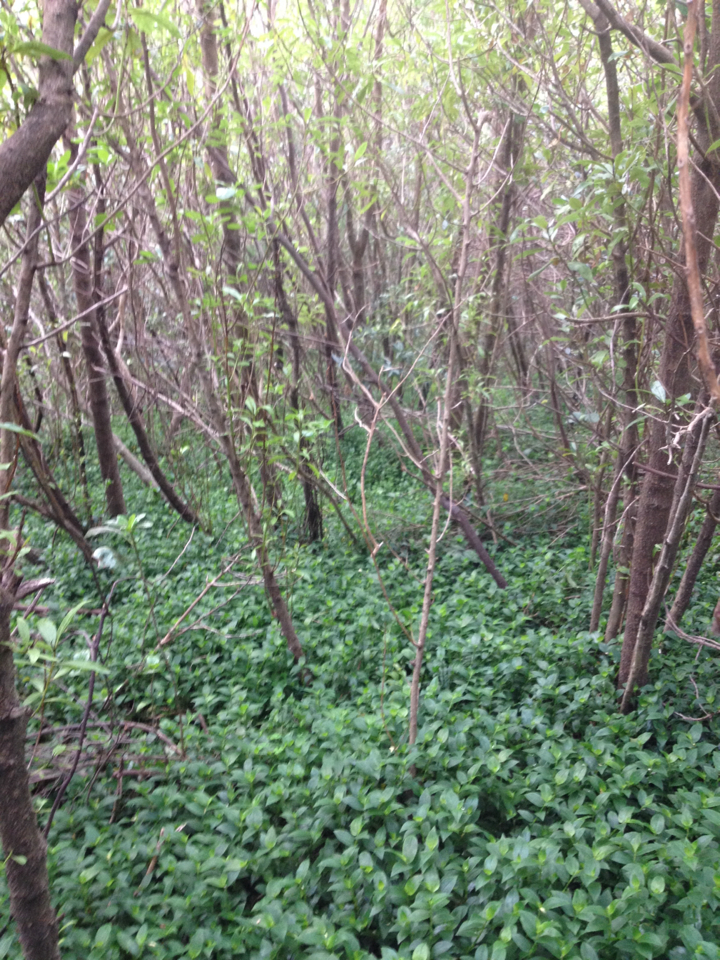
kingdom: Plantae
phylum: Tracheophyta
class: Liliopsida
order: Commelinales
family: Commelinaceae
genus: Tradescantia
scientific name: Tradescantia fluminensis
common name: Wandering-jew
